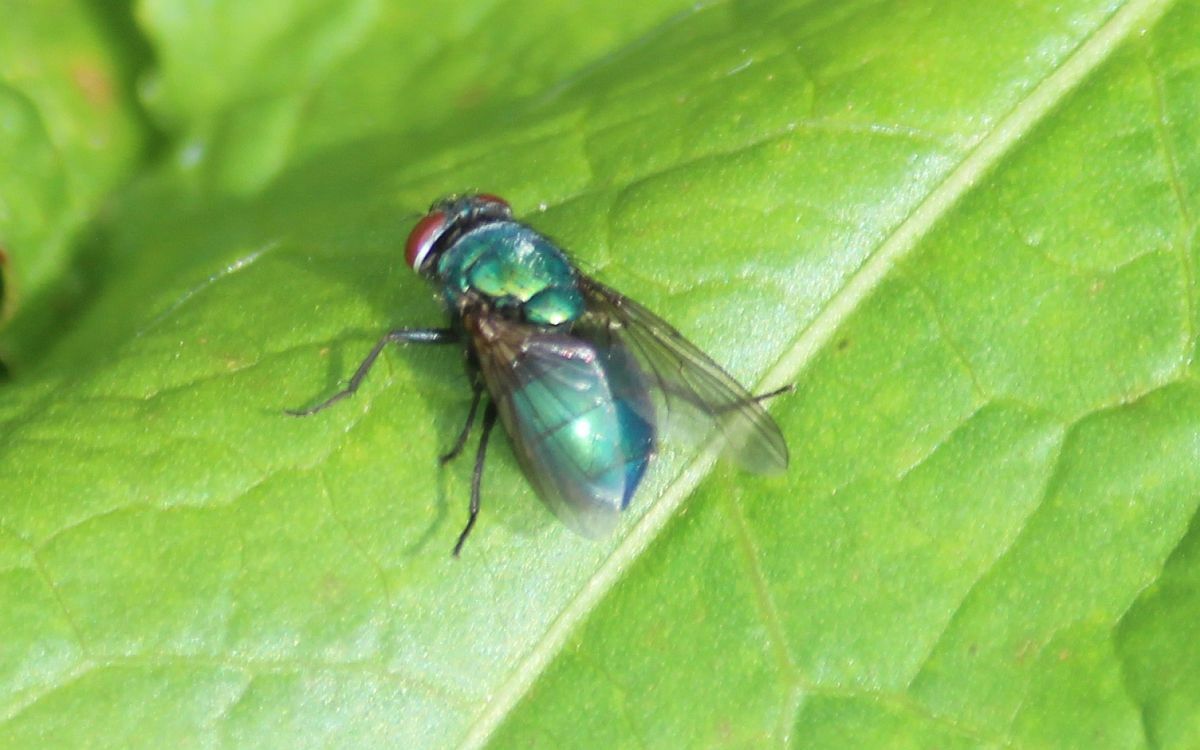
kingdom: Animalia
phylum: Arthropoda
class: Insecta
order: Diptera
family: Calliphoridae
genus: Lucilia
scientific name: Lucilia
